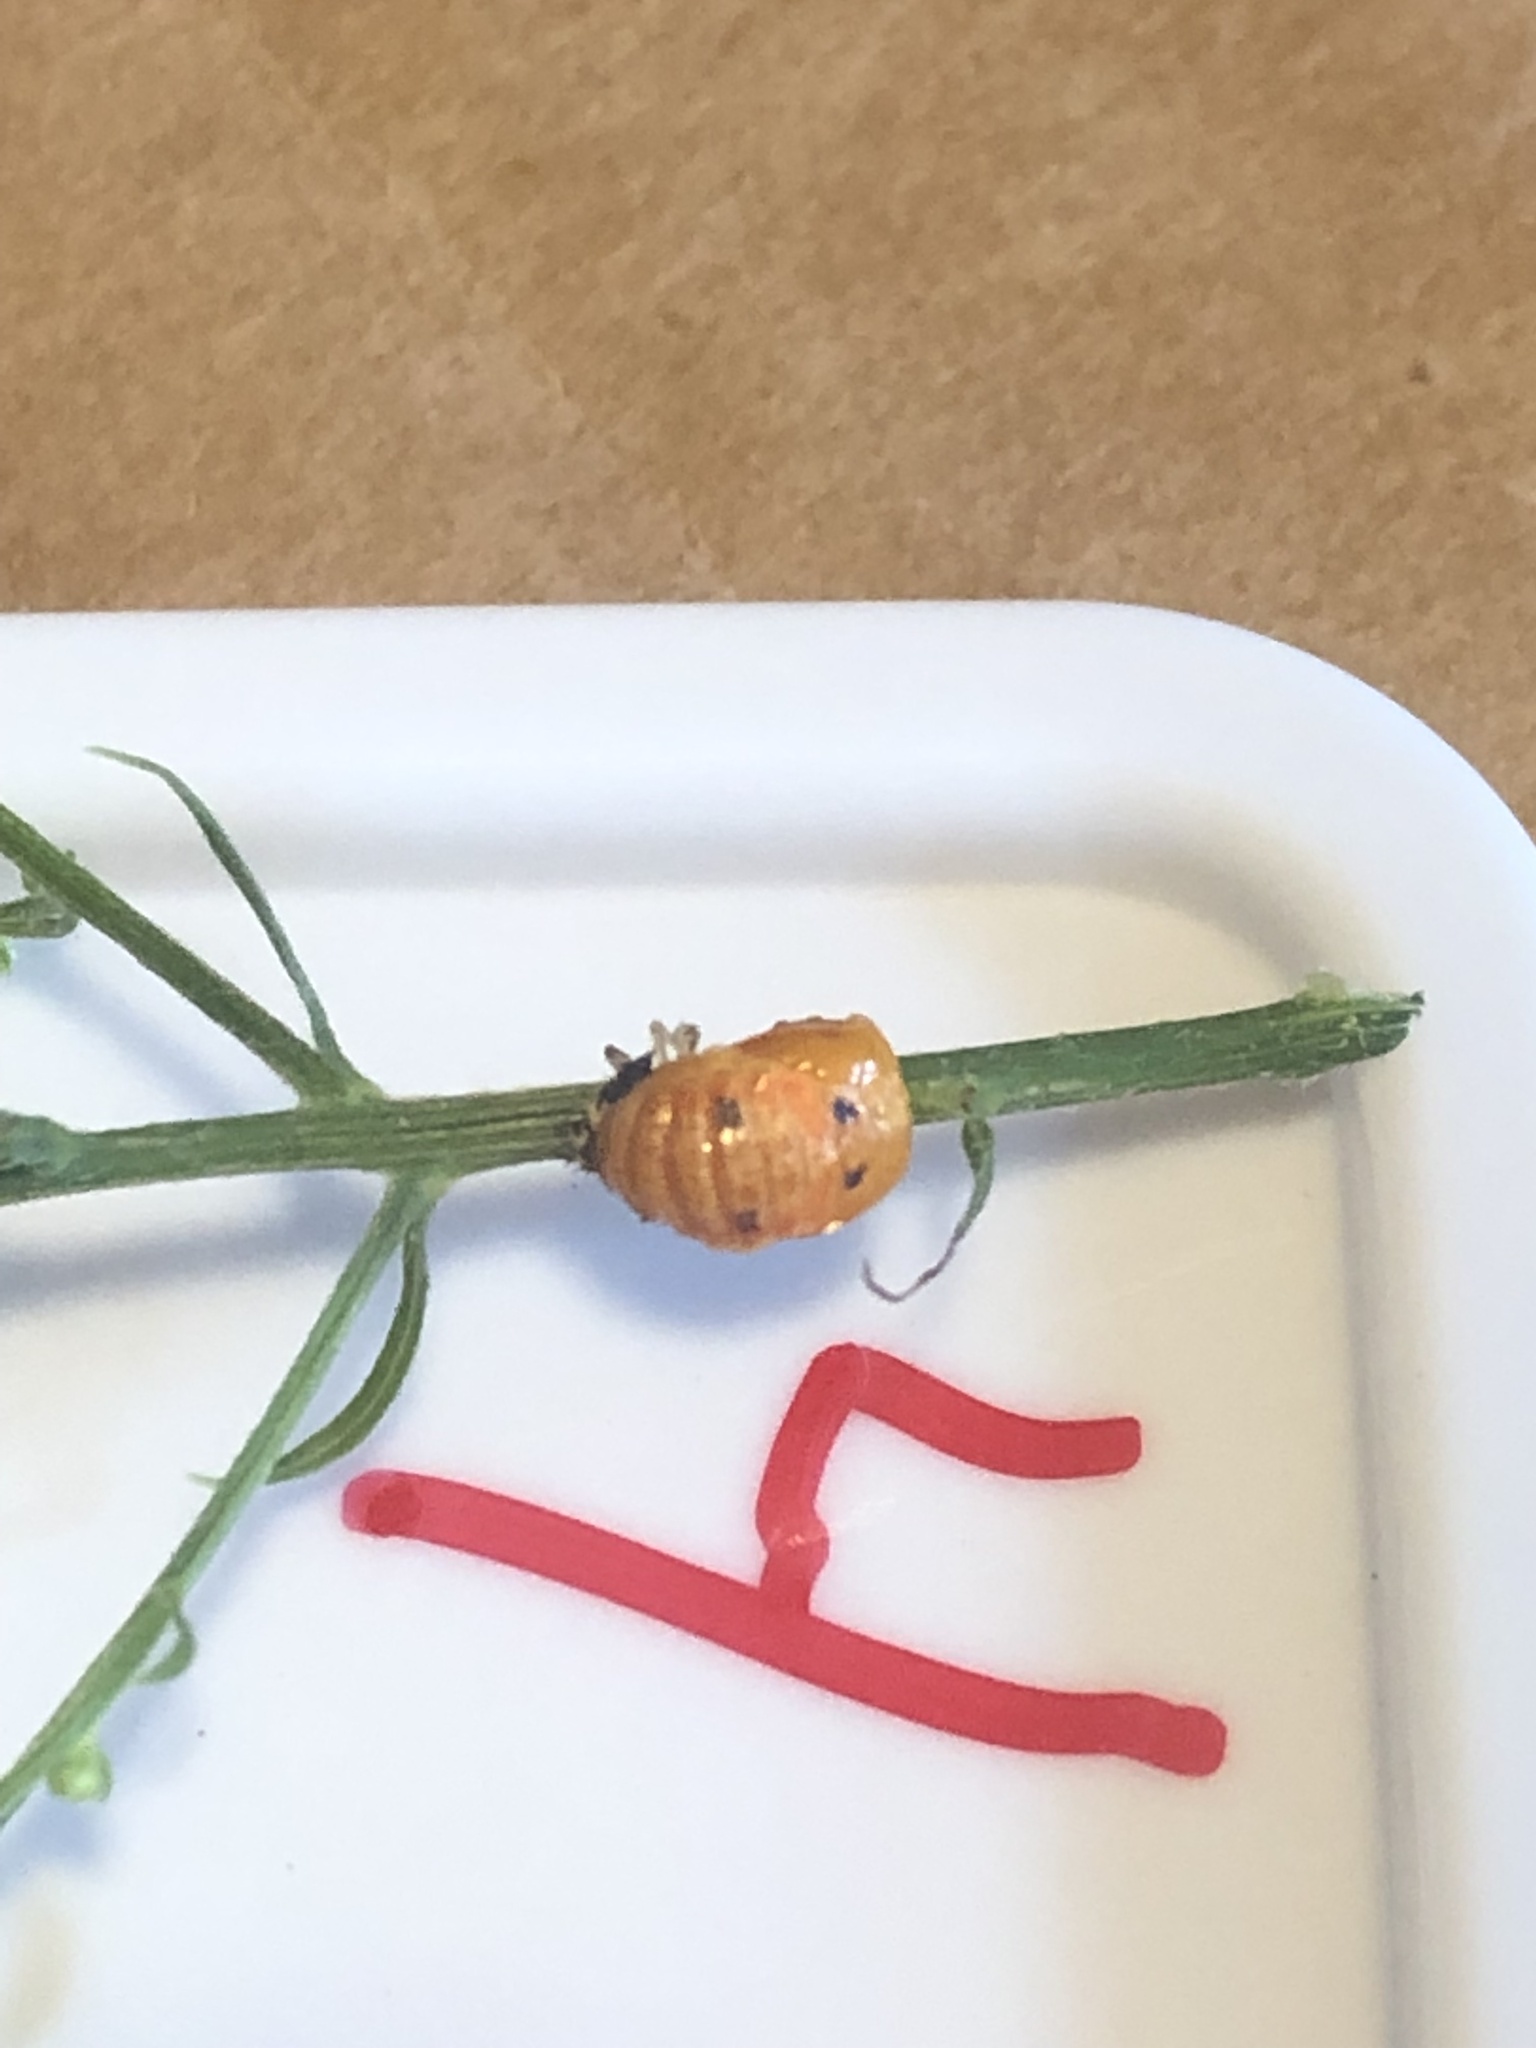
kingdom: Animalia
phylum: Arthropoda
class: Insecta
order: Coleoptera
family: Coccinellidae
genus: Harmonia
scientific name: Harmonia axyridis
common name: Harlequin ladybird
